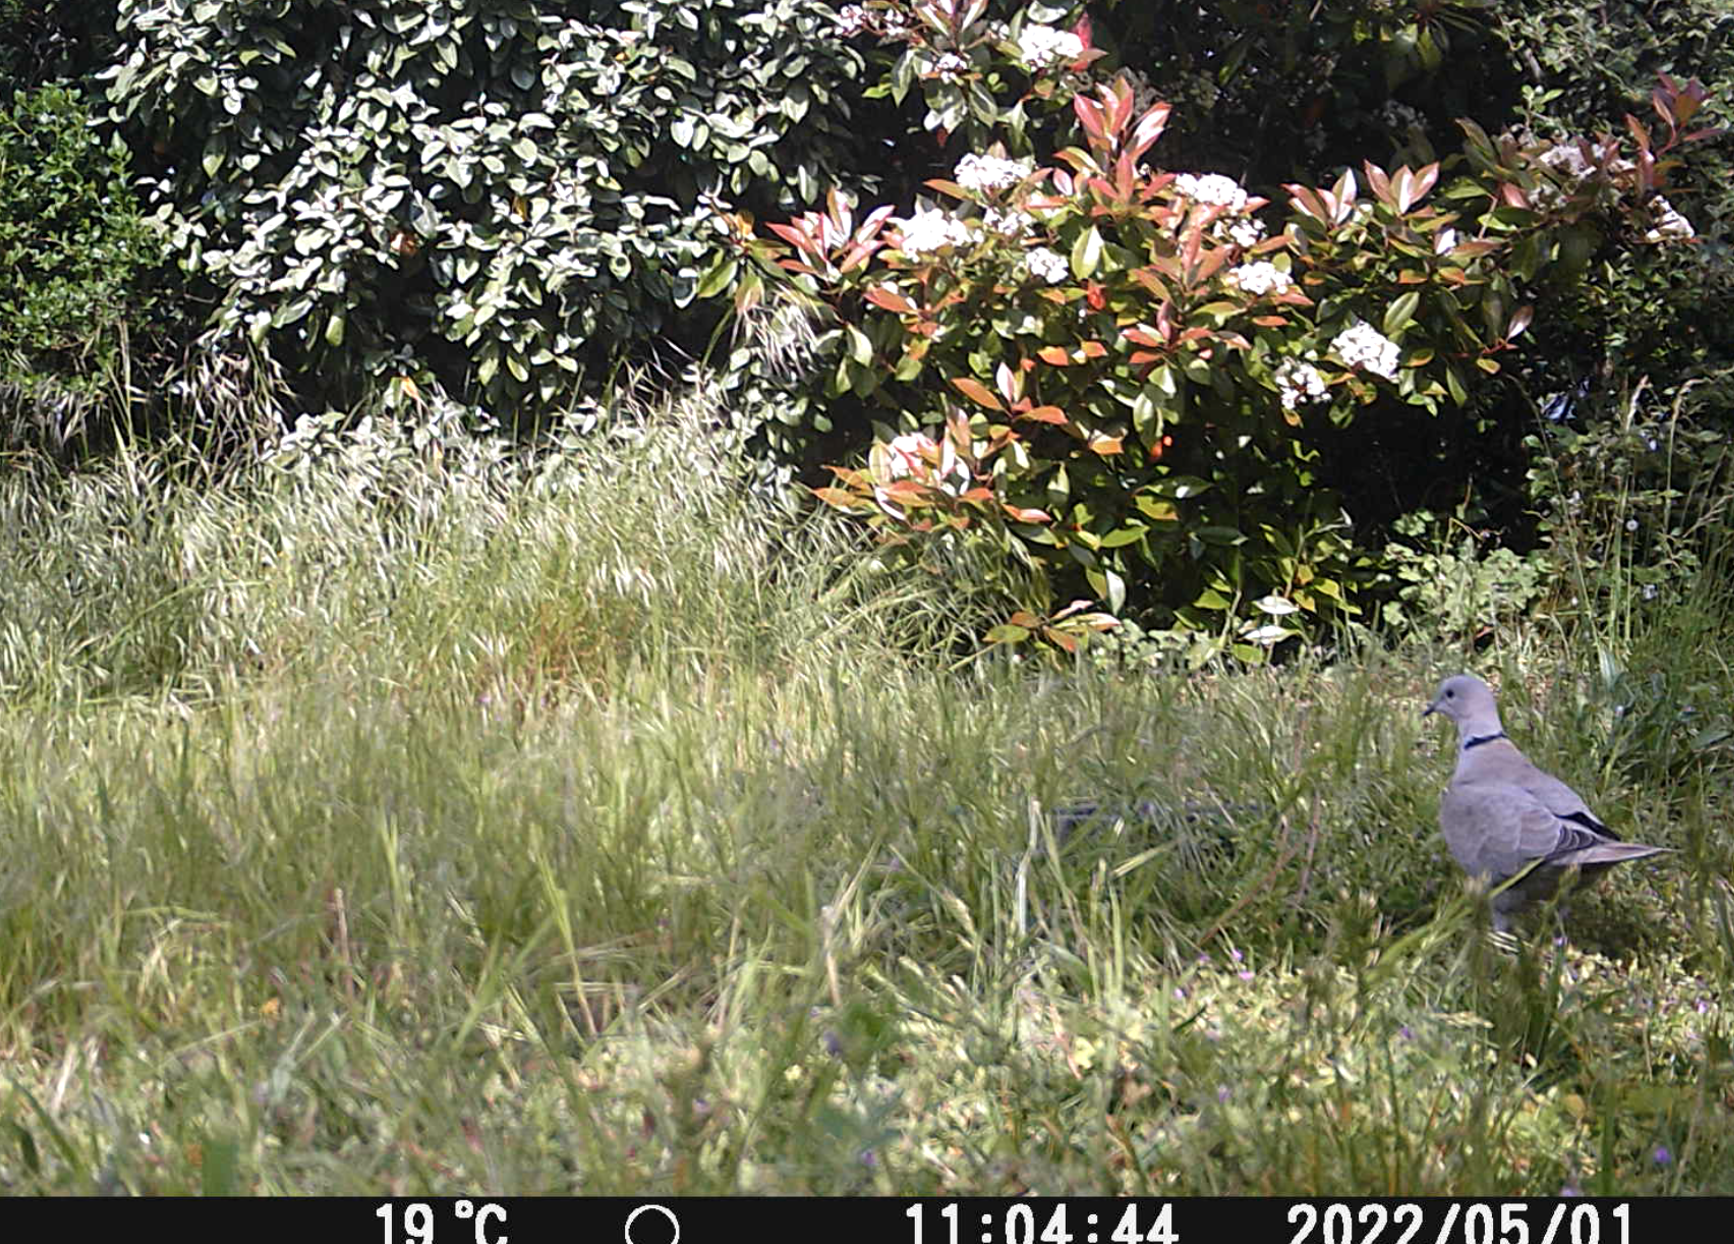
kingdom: Animalia
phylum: Chordata
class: Aves
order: Columbiformes
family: Columbidae
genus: Streptopelia
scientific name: Streptopelia decaocto
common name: Eurasian collared dove
